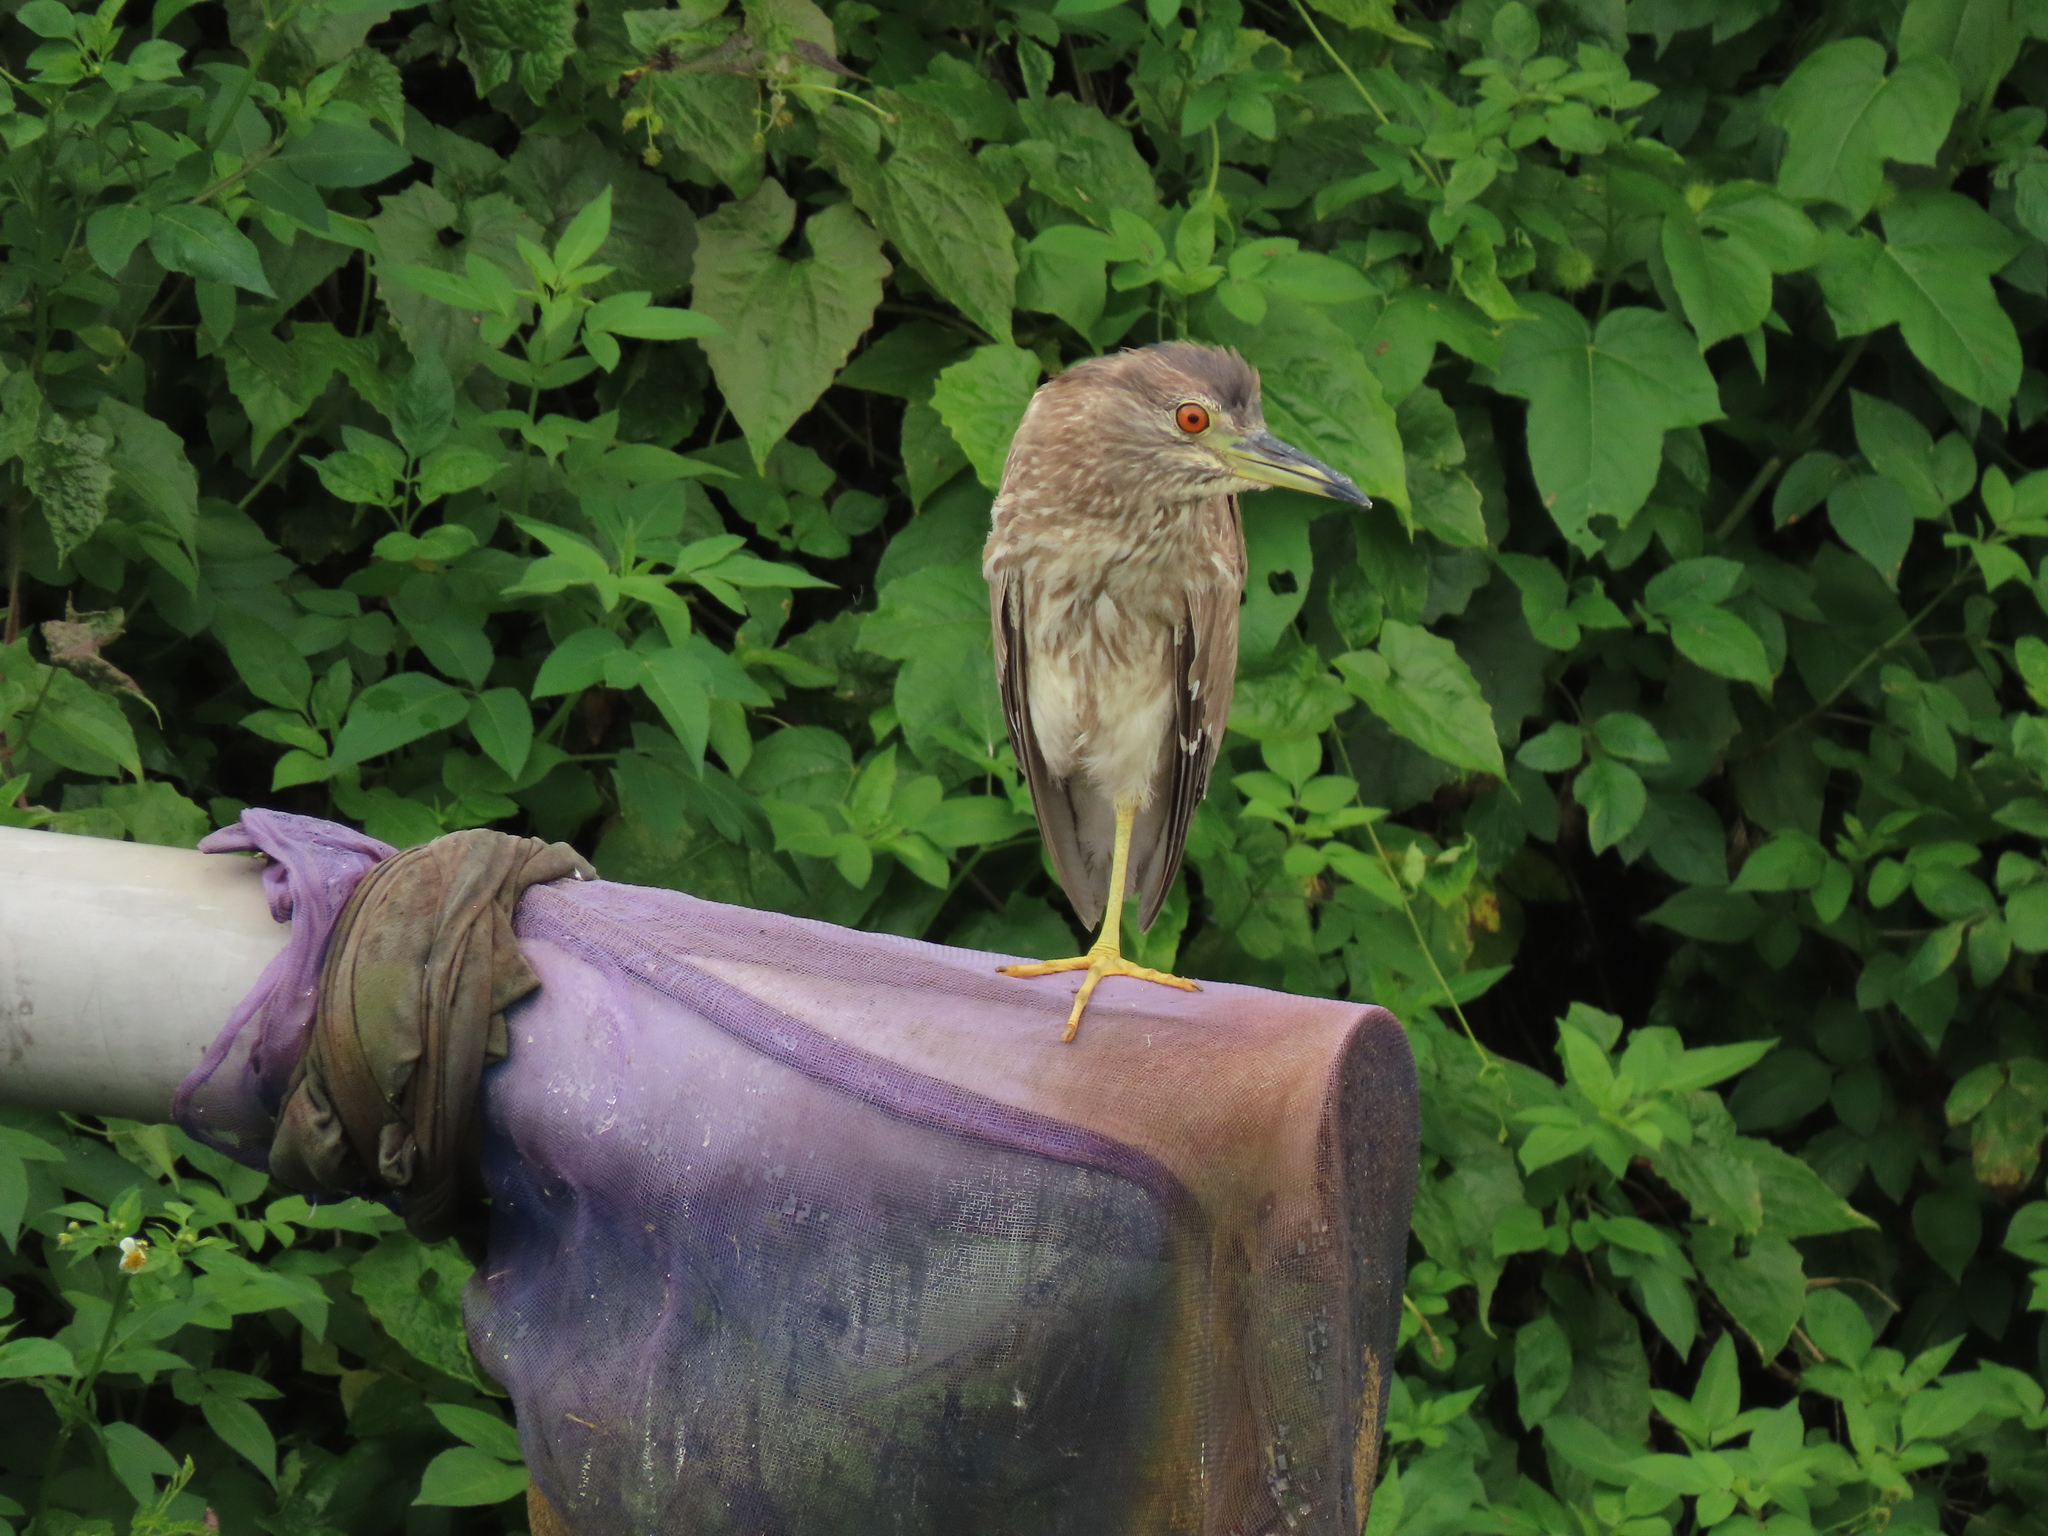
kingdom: Animalia
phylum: Chordata
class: Aves
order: Pelecaniformes
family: Ardeidae
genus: Nycticorax
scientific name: Nycticorax nycticorax
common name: Black-crowned night heron
